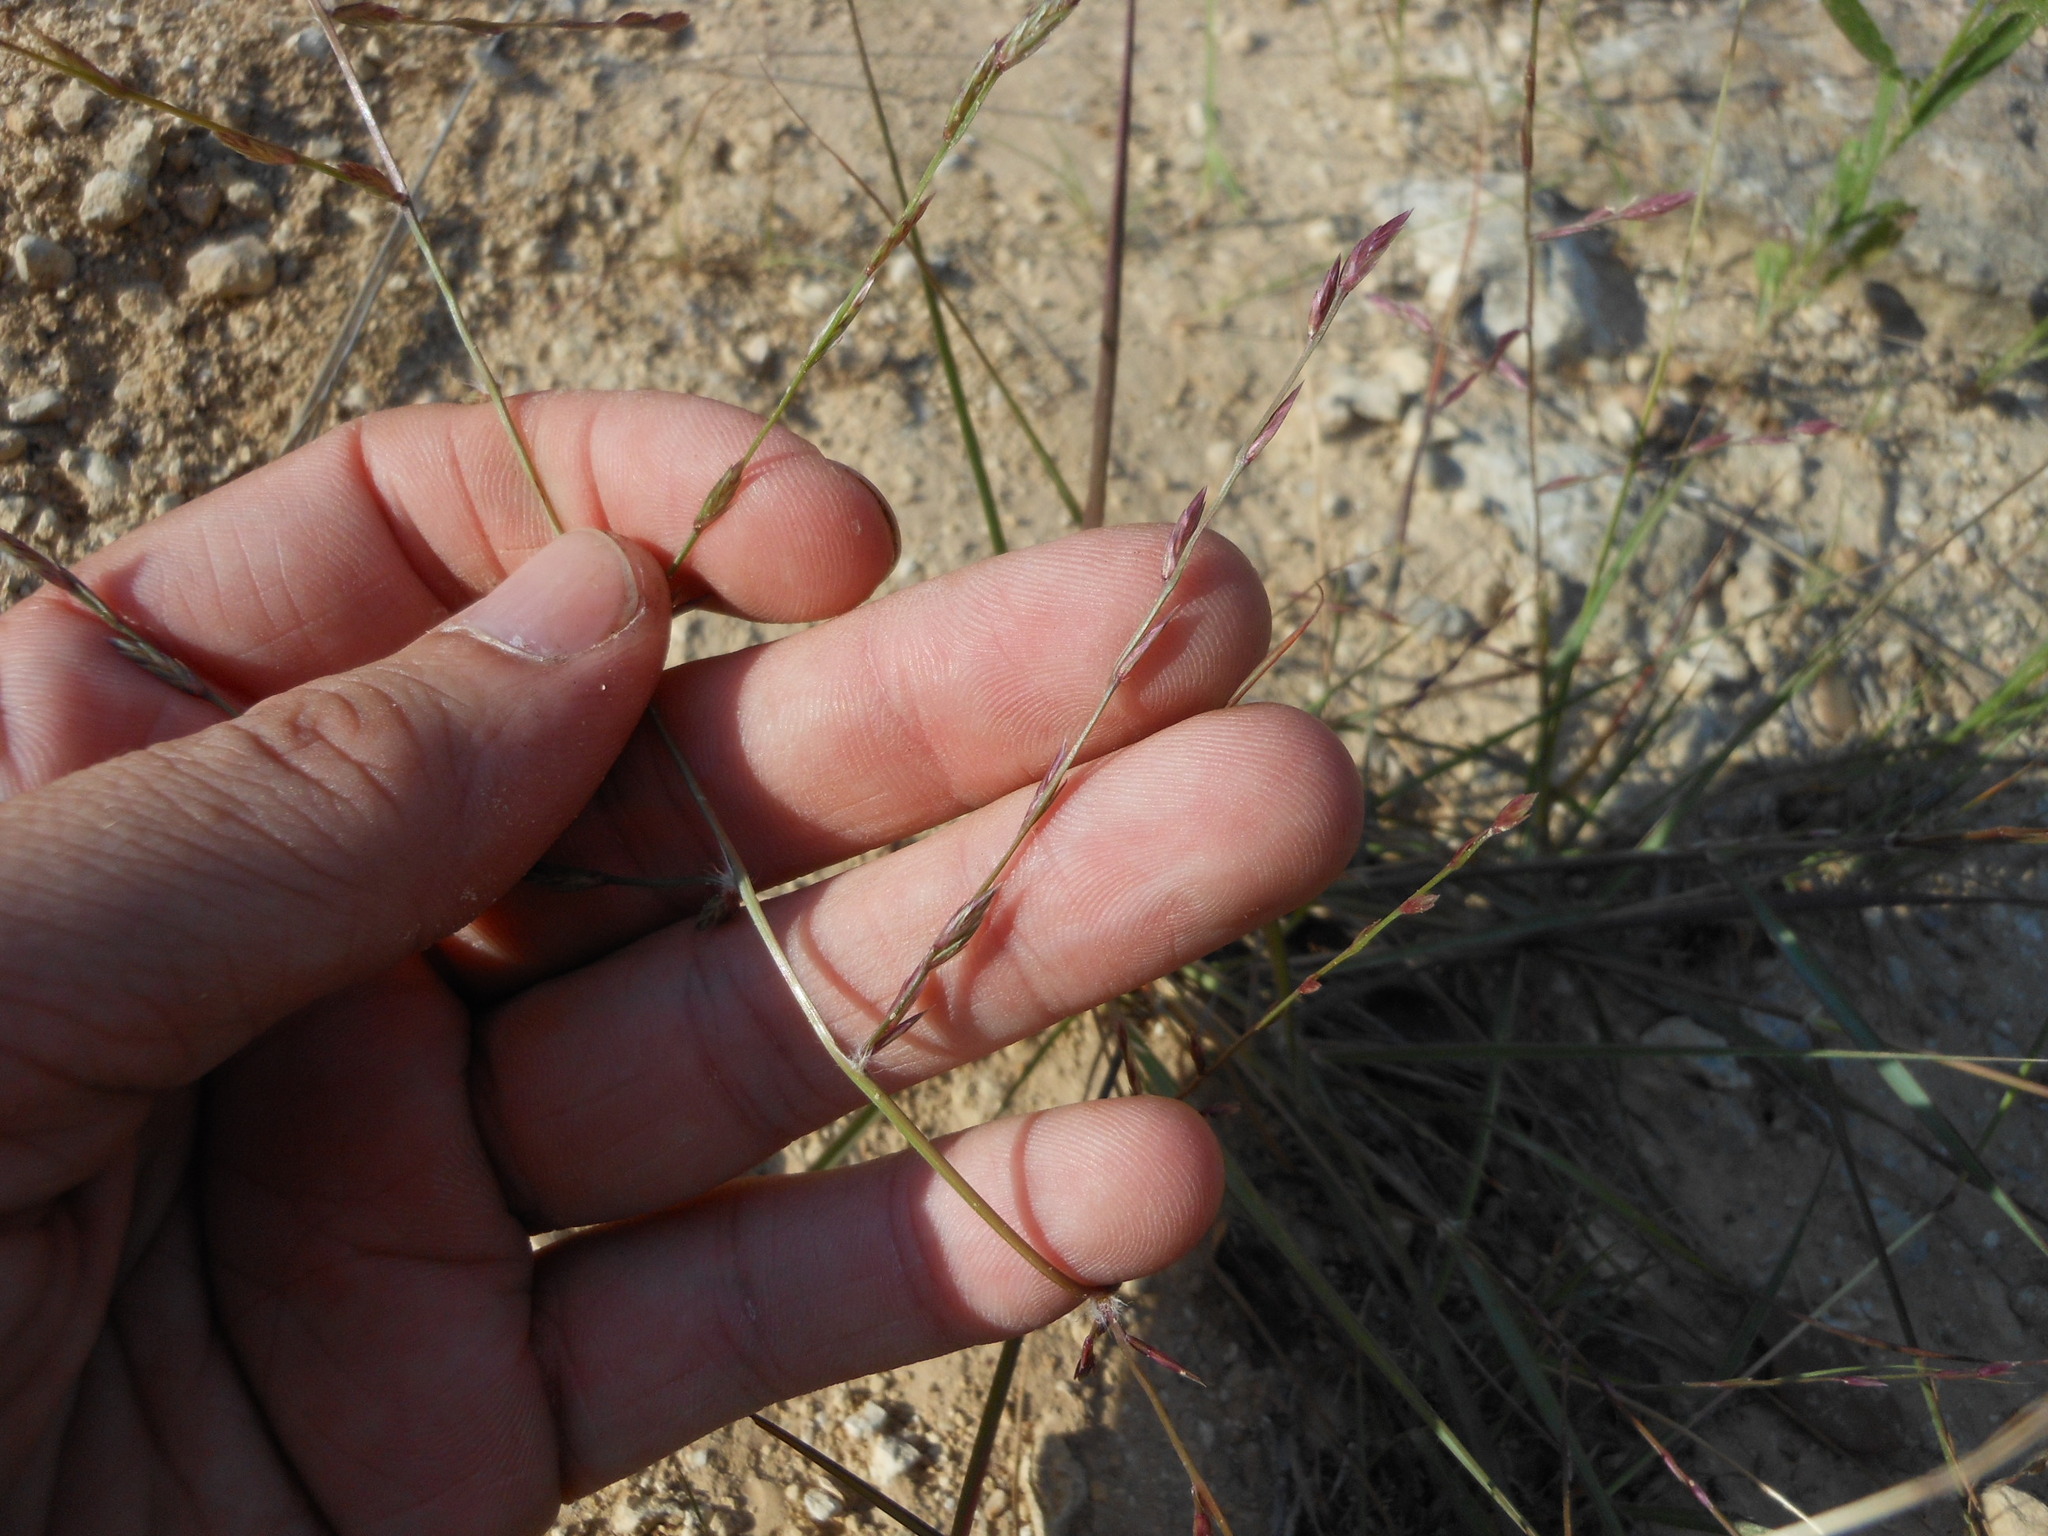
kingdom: Plantae
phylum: Tracheophyta
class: Liliopsida
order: Poales
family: Poaceae
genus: Eragrostis
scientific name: Eragrostis sessilispica
